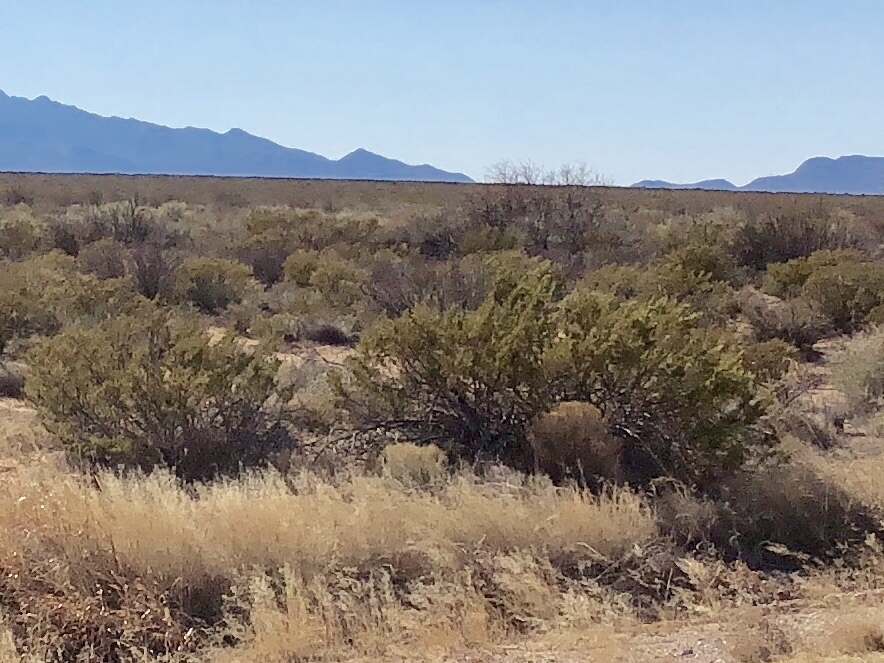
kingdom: Plantae
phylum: Tracheophyta
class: Magnoliopsida
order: Zygophyllales
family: Zygophyllaceae
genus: Larrea
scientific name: Larrea tridentata
